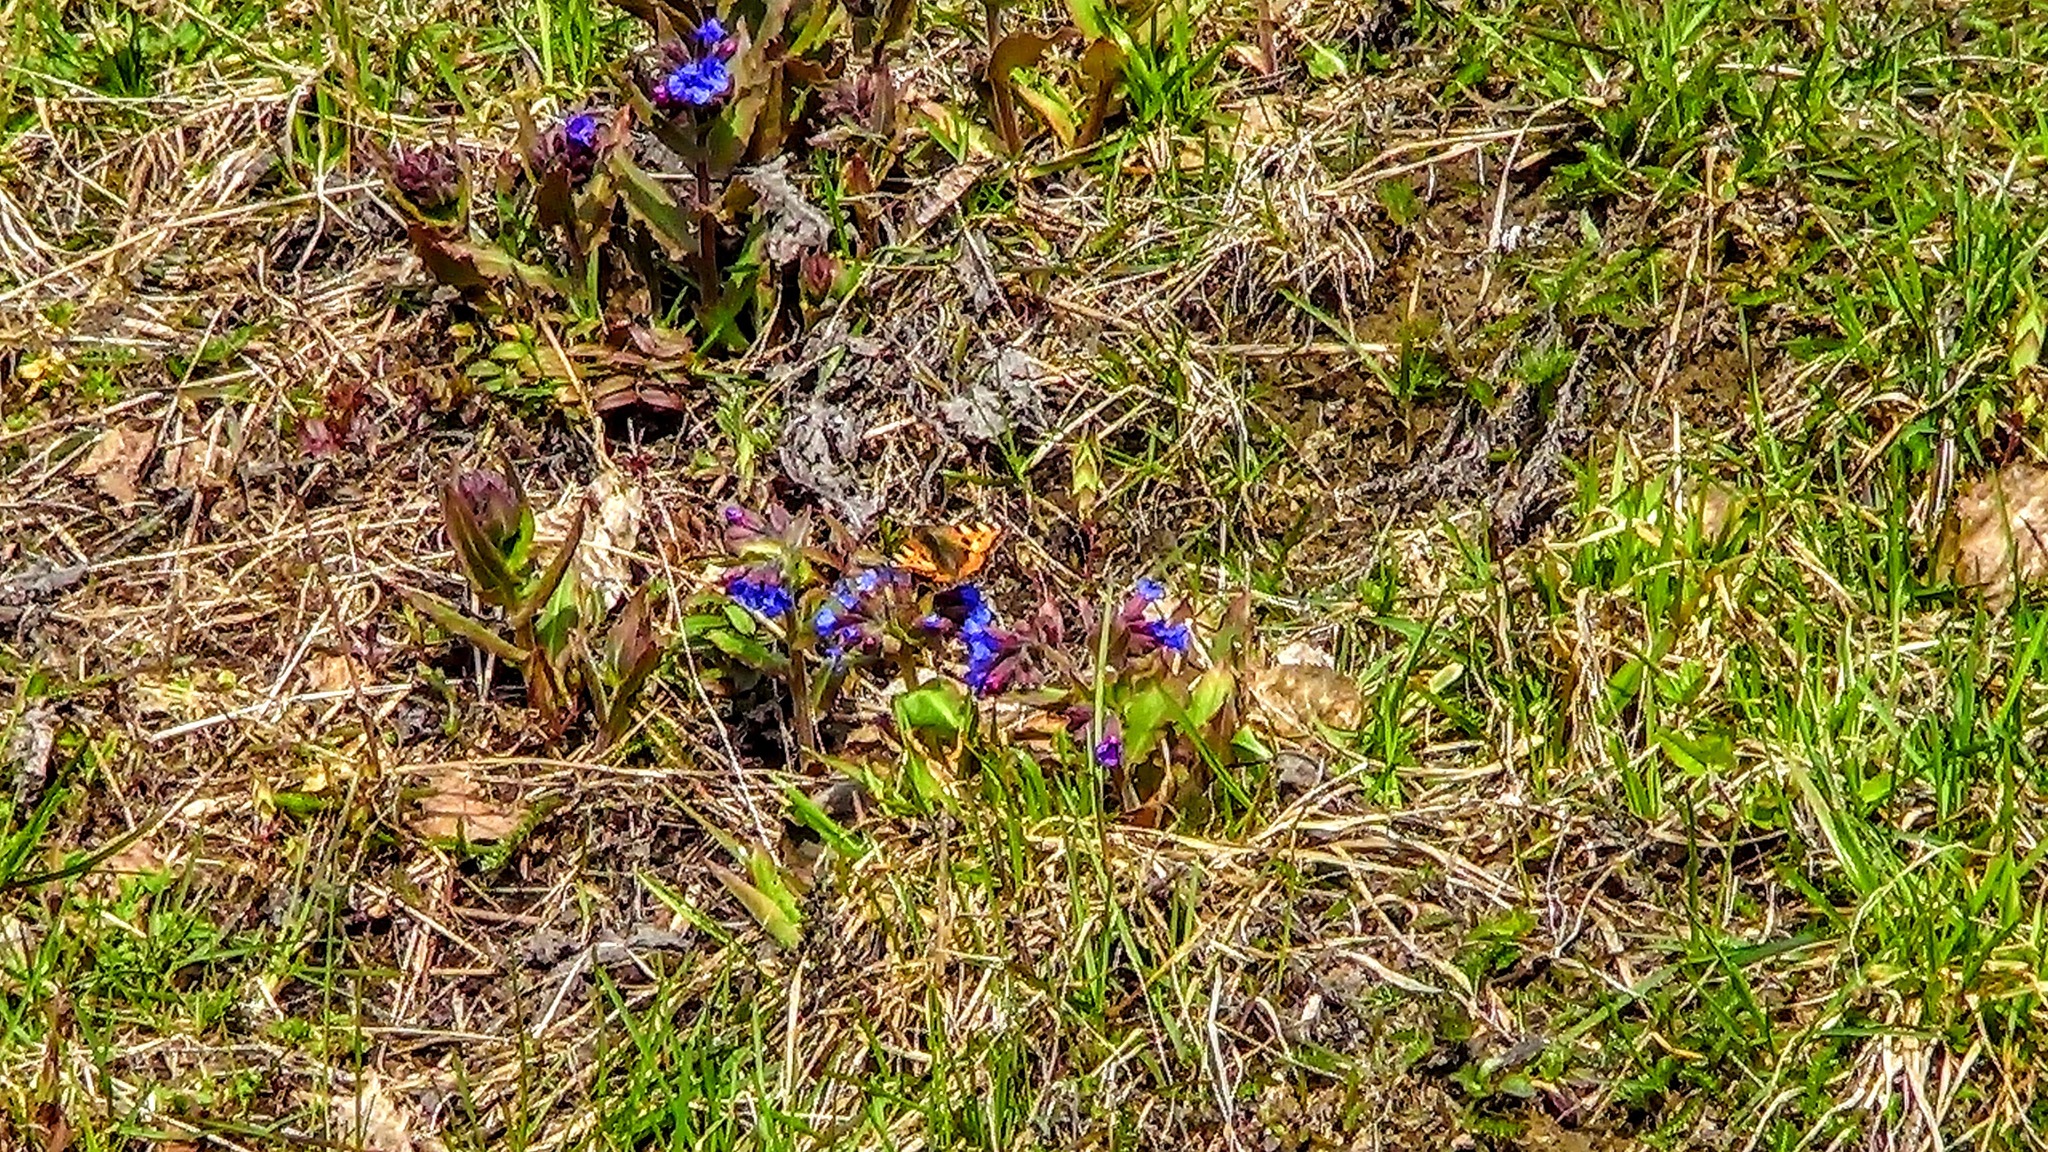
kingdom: Plantae
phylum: Tracheophyta
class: Magnoliopsida
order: Boraginales
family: Boraginaceae
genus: Pulmonaria
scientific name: Pulmonaria mollis
